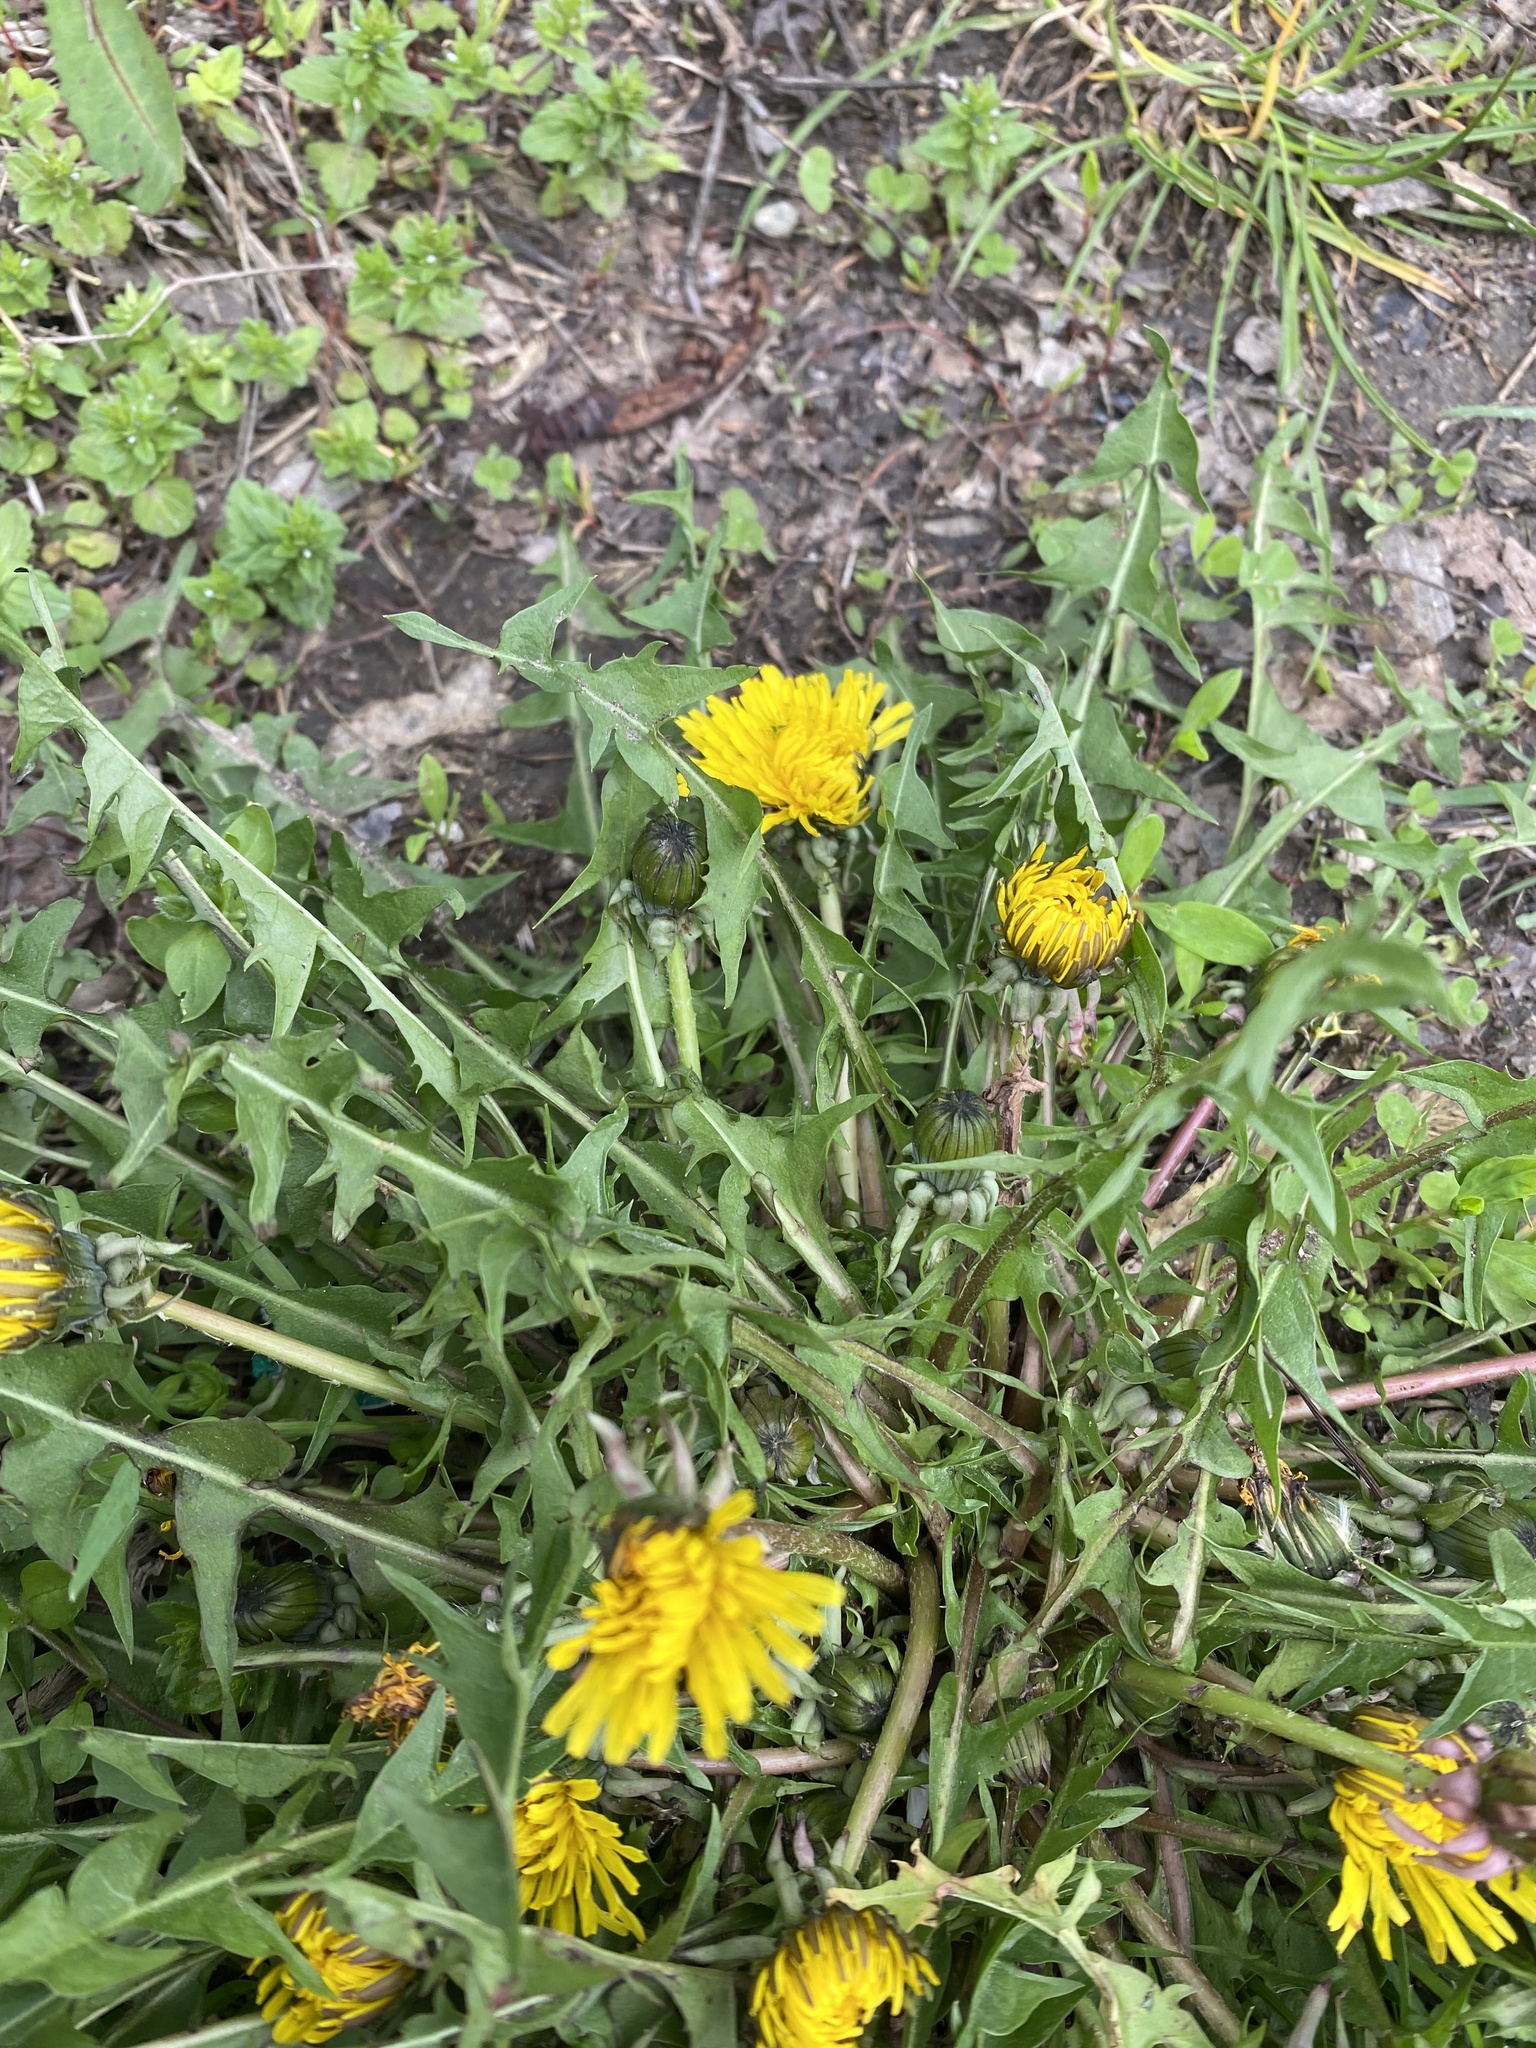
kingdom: Plantae
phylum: Tracheophyta
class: Magnoliopsida
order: Asterales
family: Asteraceae
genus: Taraxacum
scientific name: Taraxacum officinale
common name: Common dandelion
